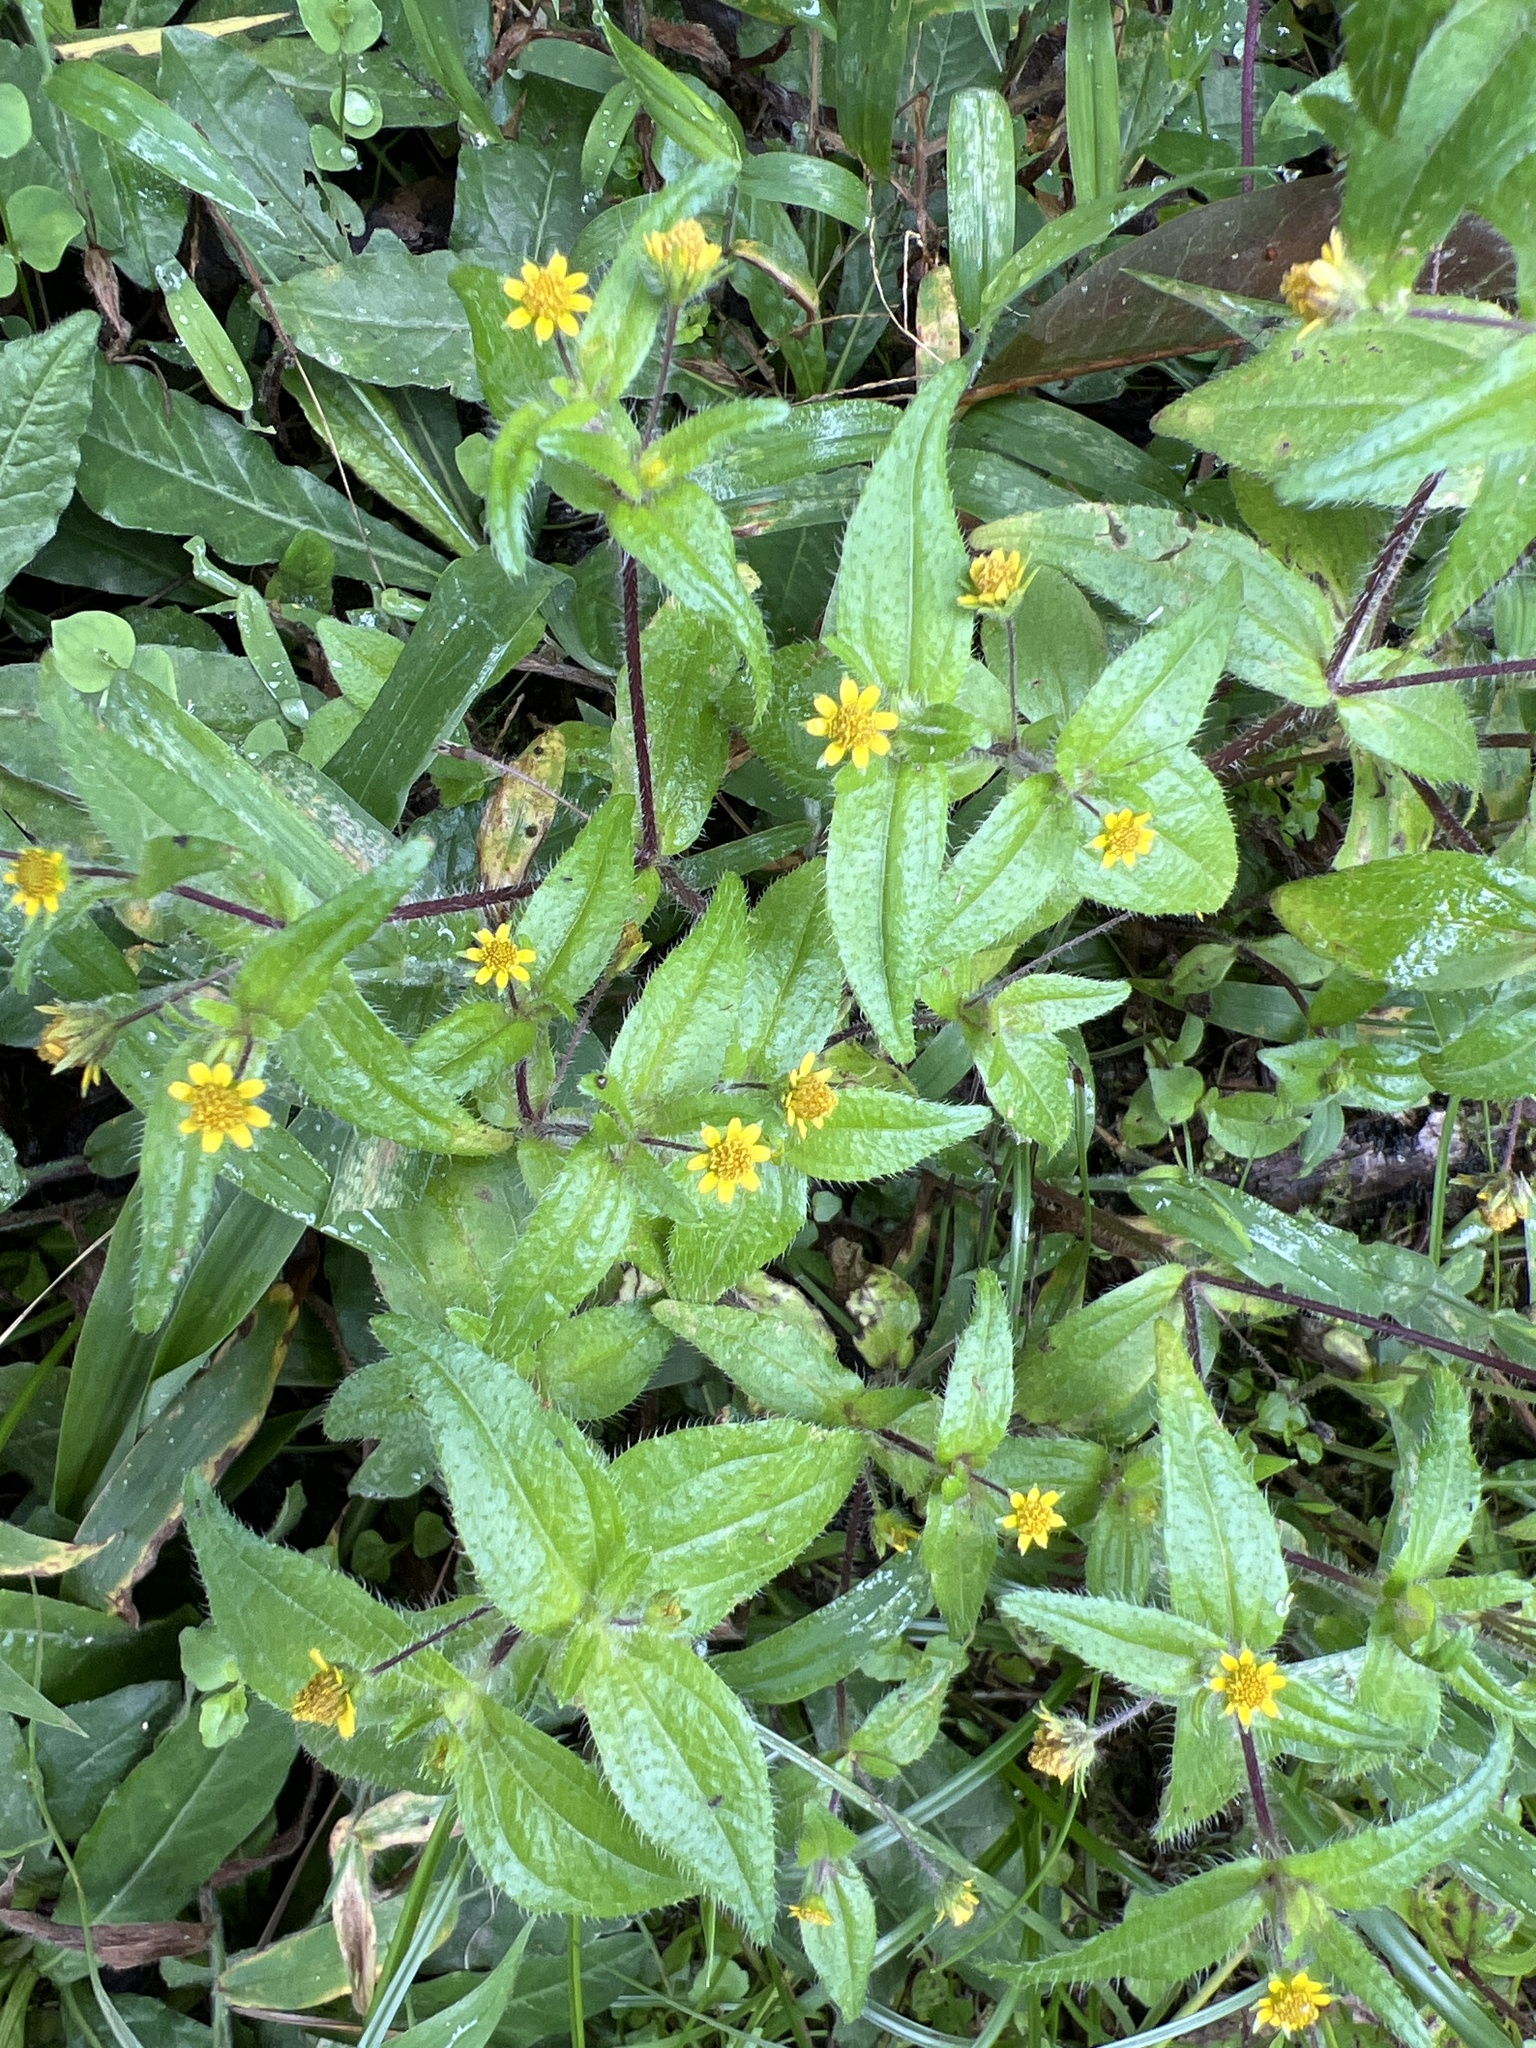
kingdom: Plantae
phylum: Tracheophyta
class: Magnoliopsida
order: Asterales
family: Asteraceae
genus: Jaegeria
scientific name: Jaegeria hirta
